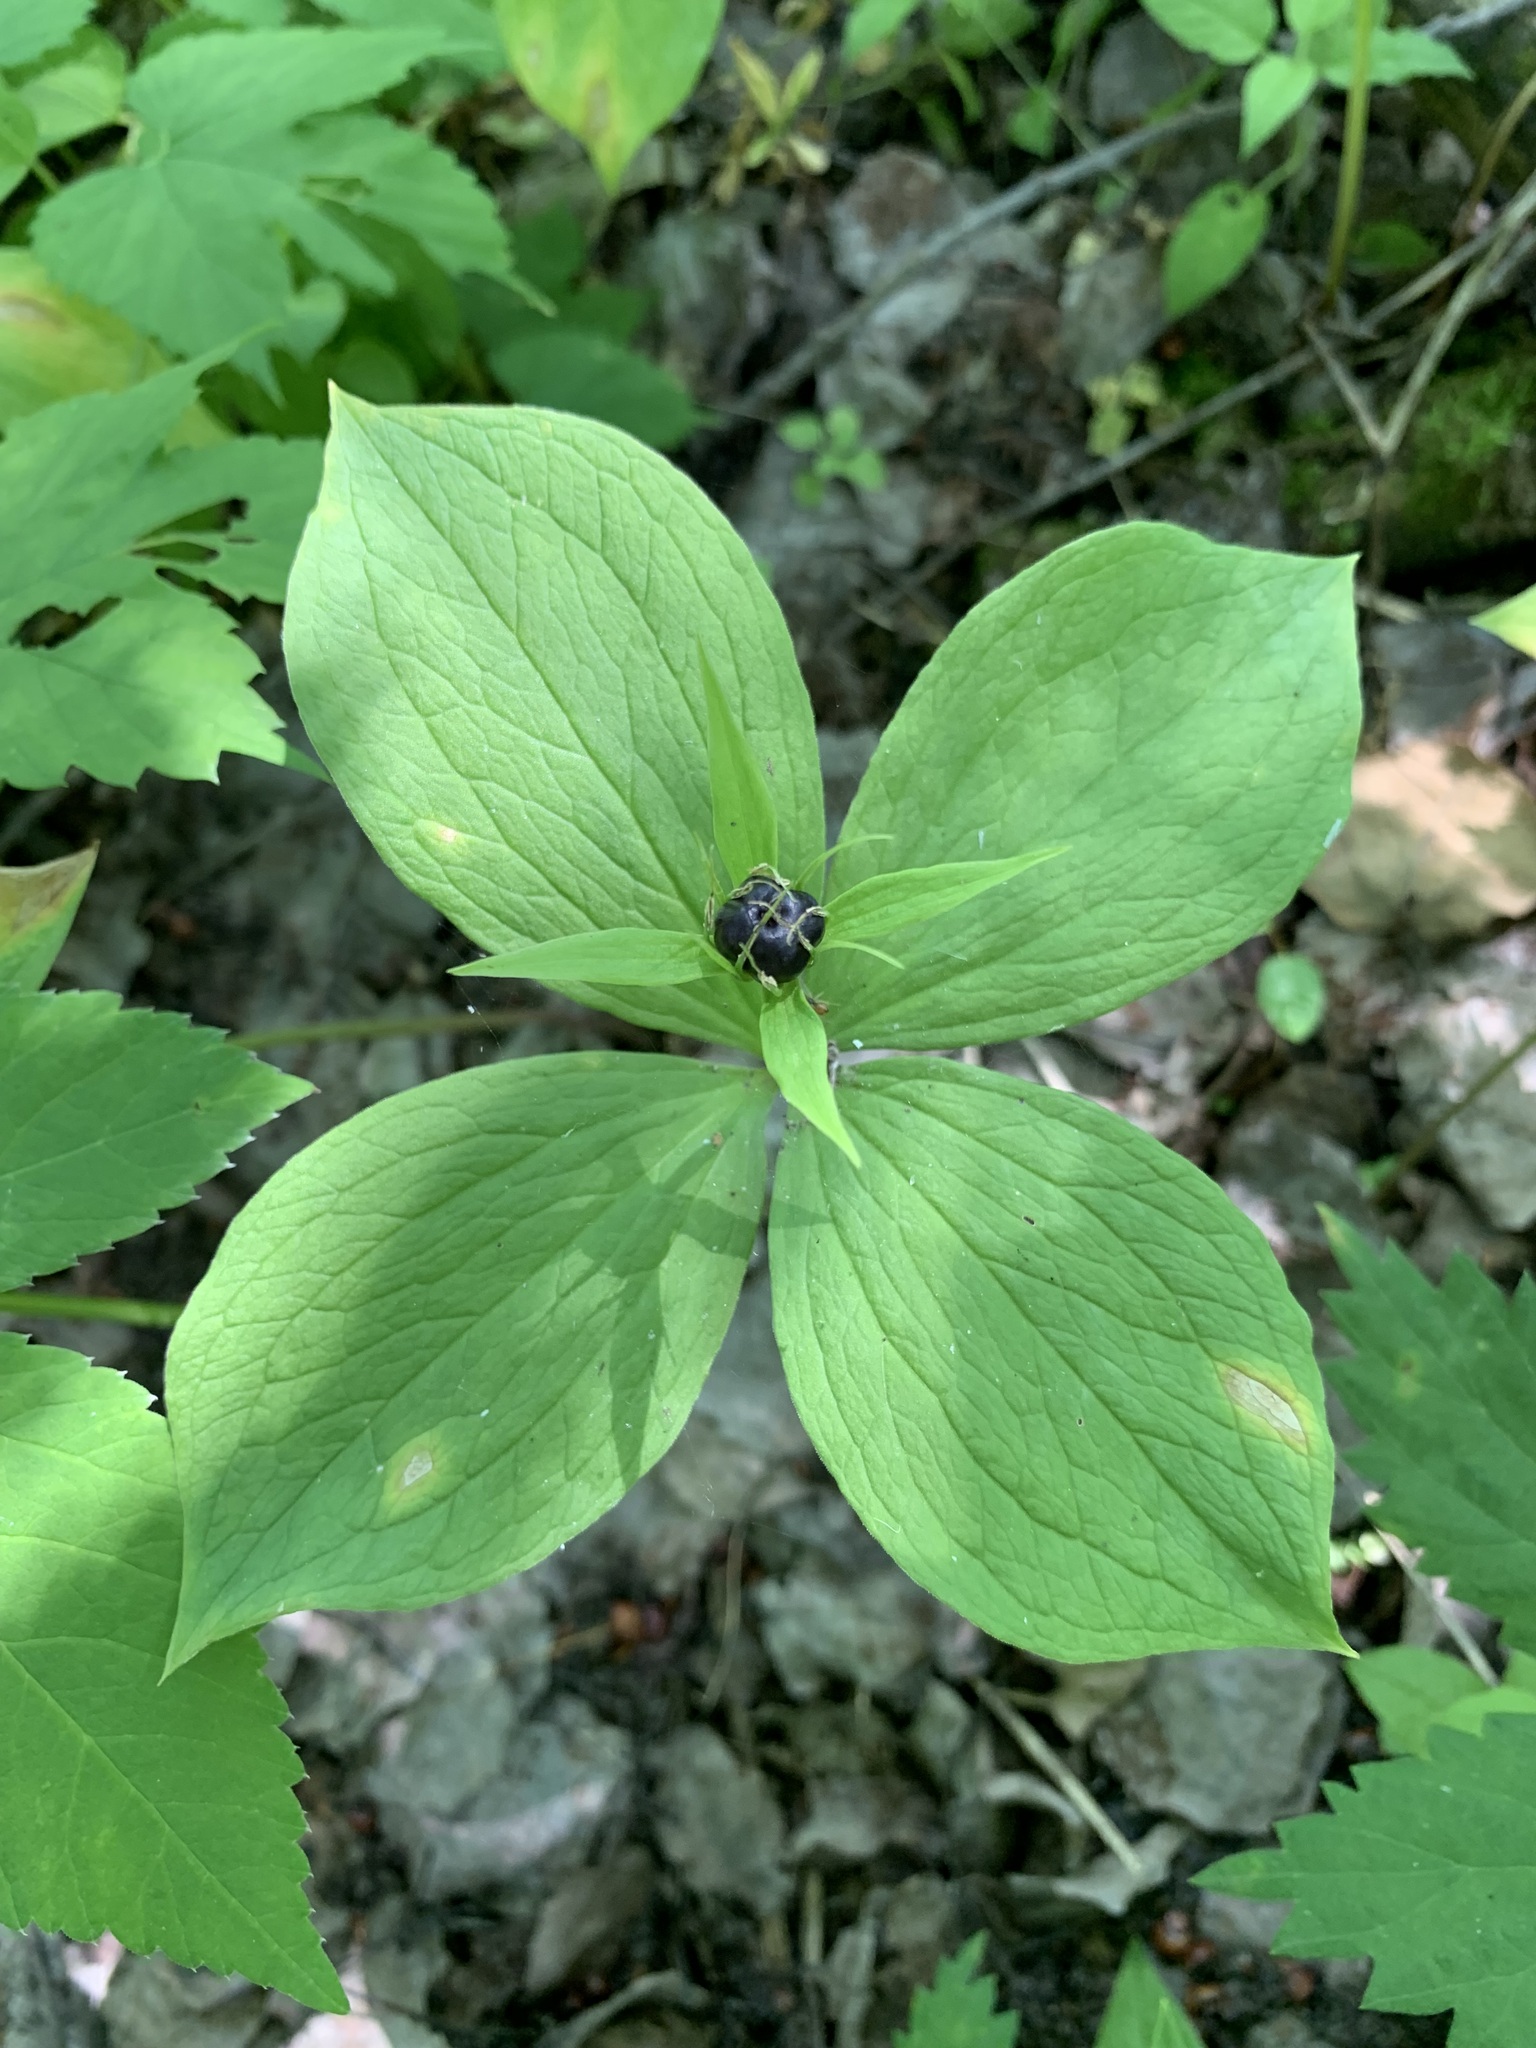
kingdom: Plantae
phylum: Tracheophyta
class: Liliopsida
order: Liliales
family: Melanthiaceae
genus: Paris
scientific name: Paris quadrifolia
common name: Herb-paris
